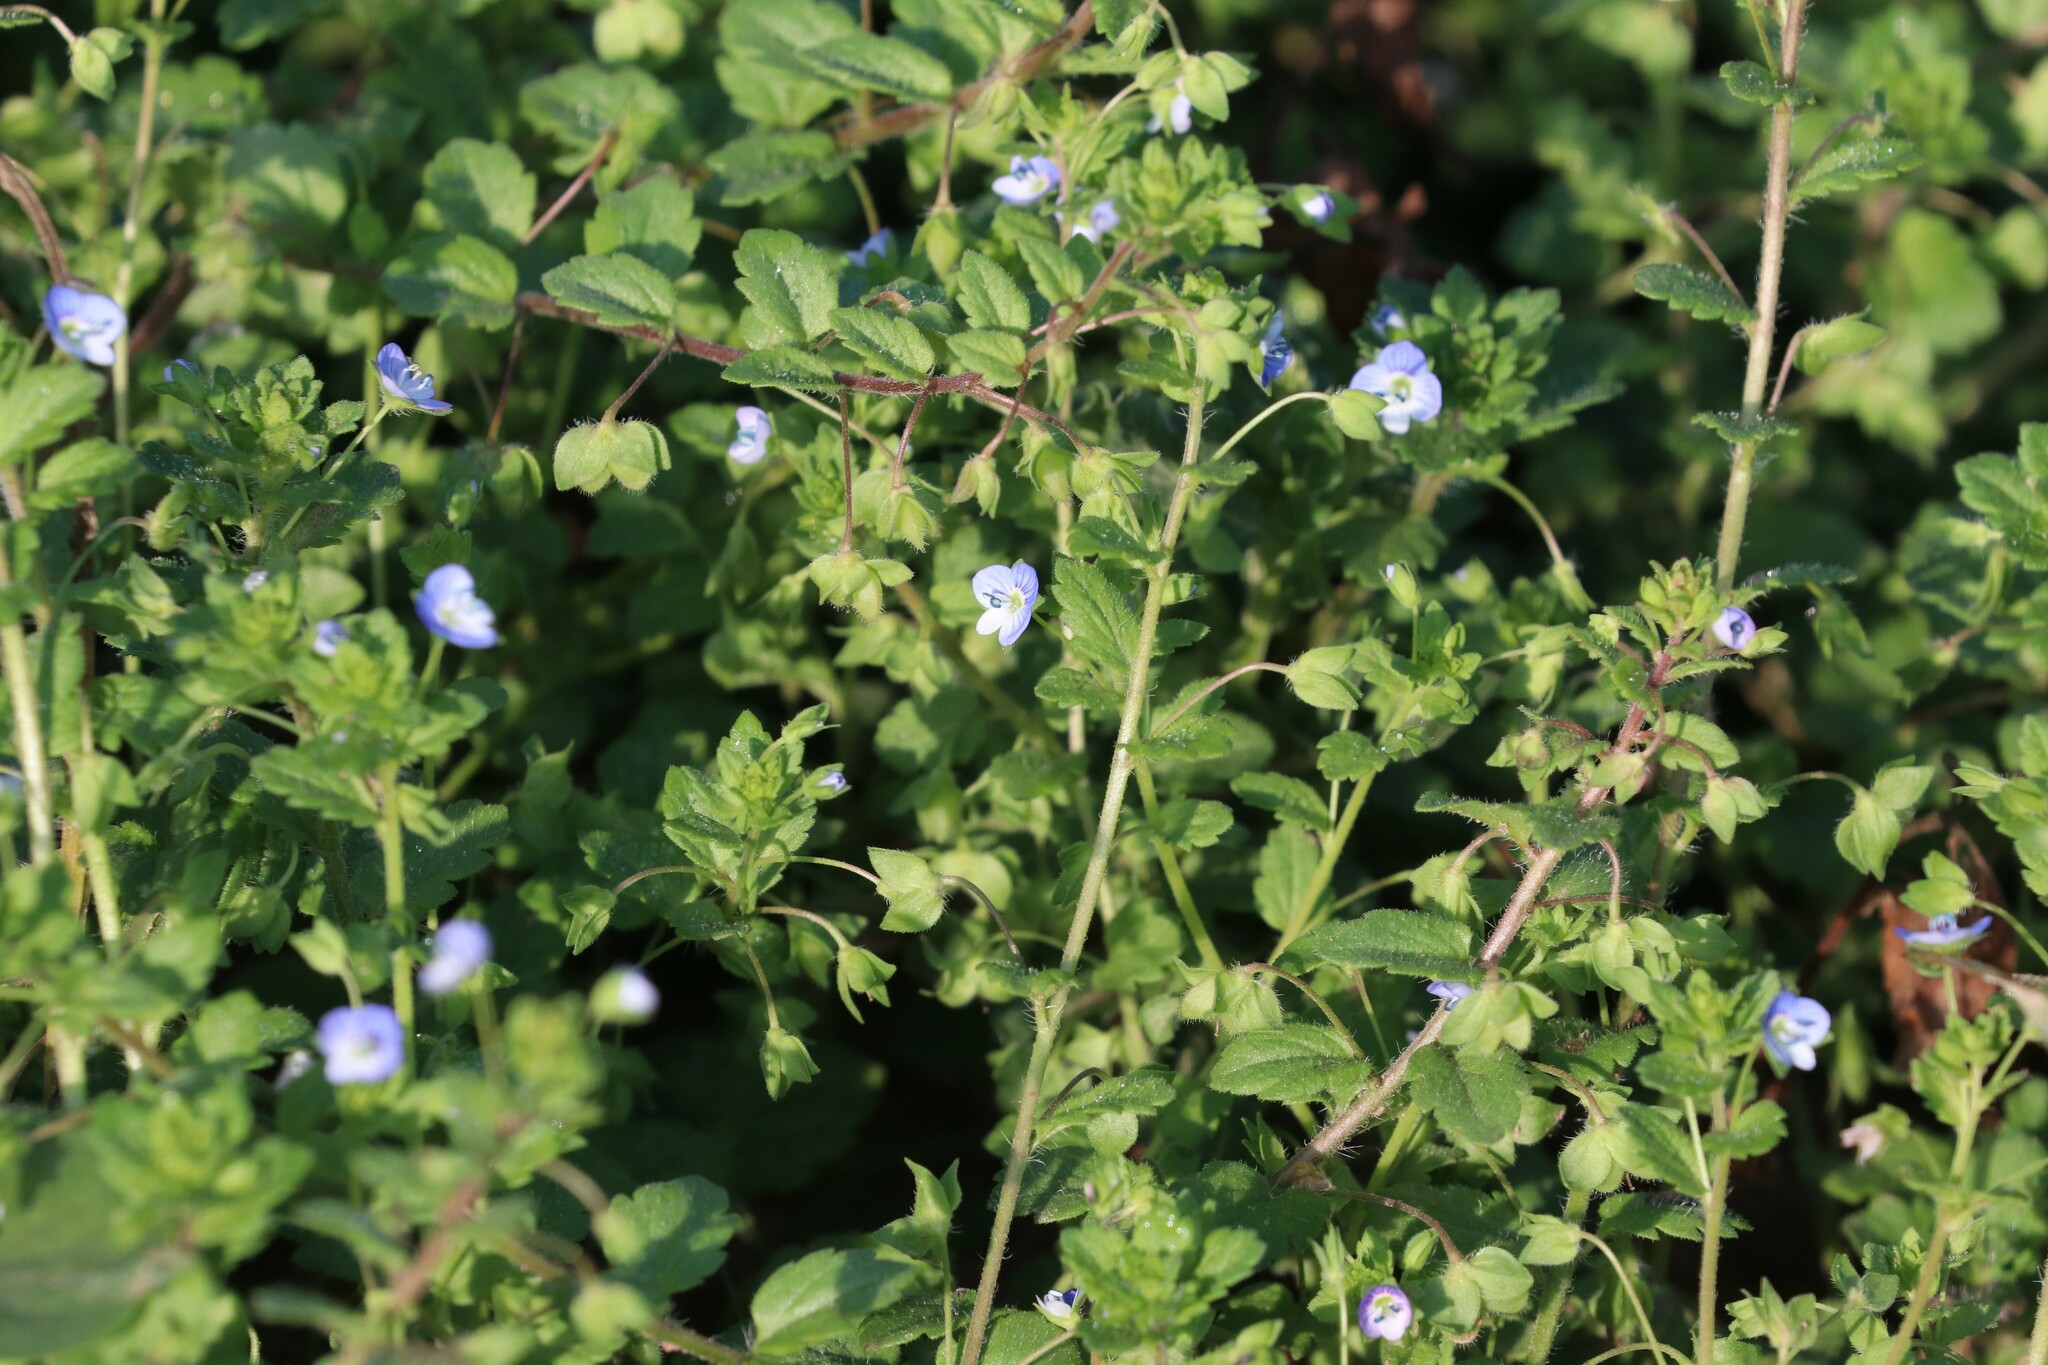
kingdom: Plantae
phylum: Tracheophyta
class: Magnoliopsida
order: Lamiales
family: Plantaginaceae
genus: Veronica
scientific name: Veronica persica
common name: Common field-speedwell
